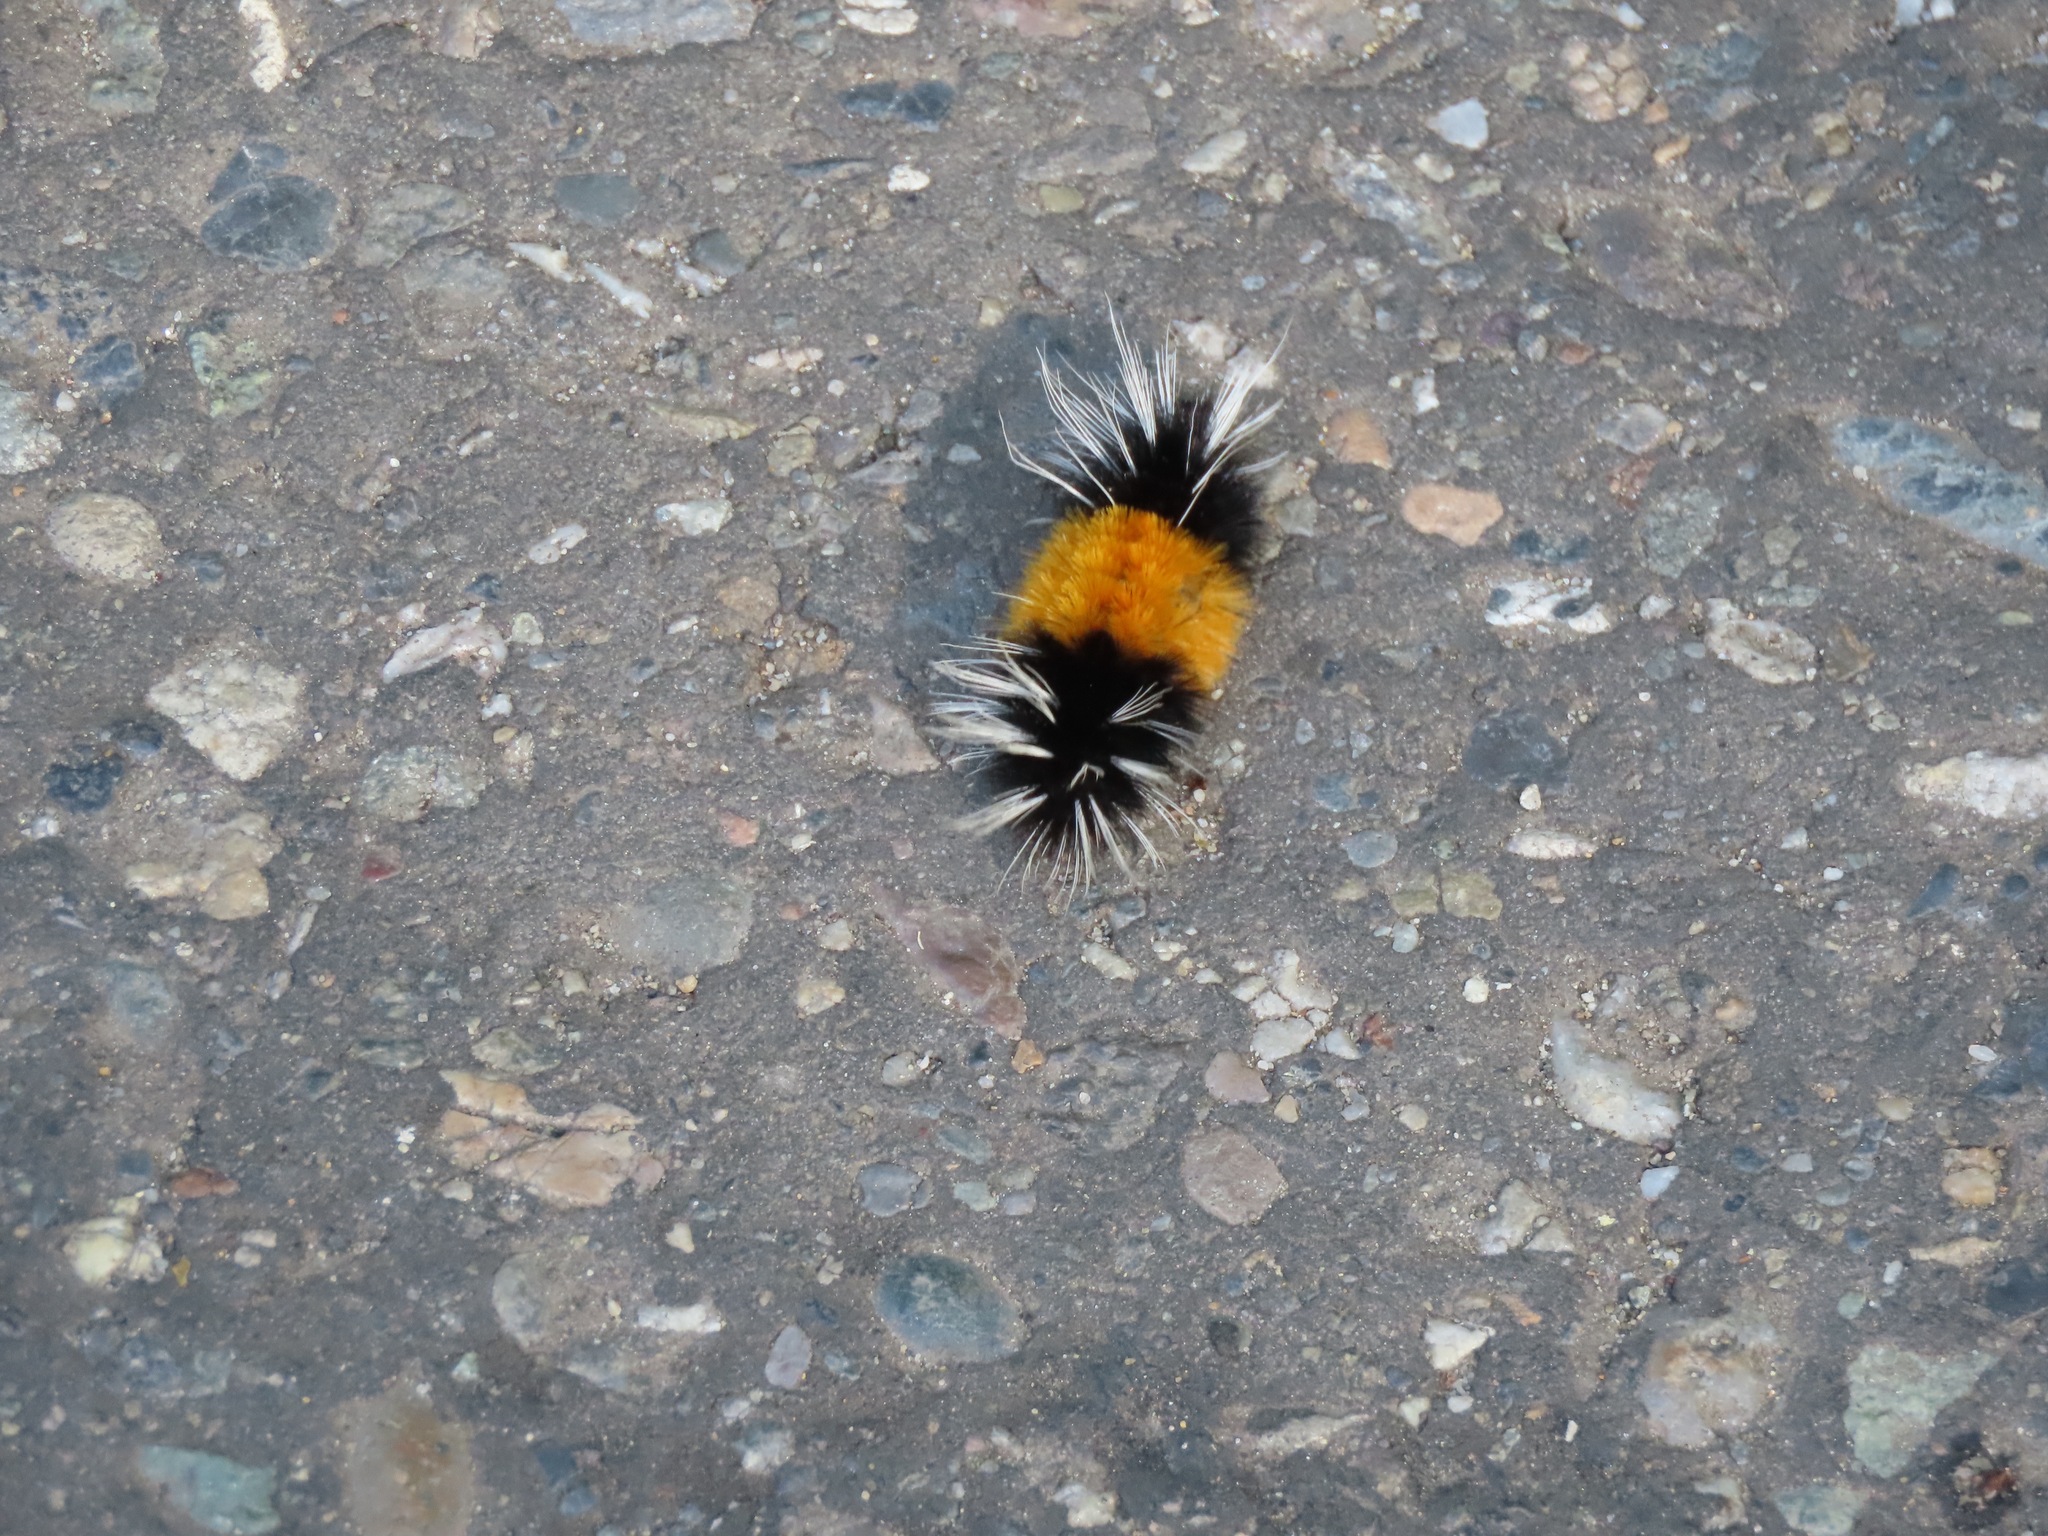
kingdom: Animalia
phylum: Arthropoda
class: Insecta
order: Lepidoptera
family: Erebidae
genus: Lophocampa
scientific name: Lophocampa maculata
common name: Spotted tussock moth
